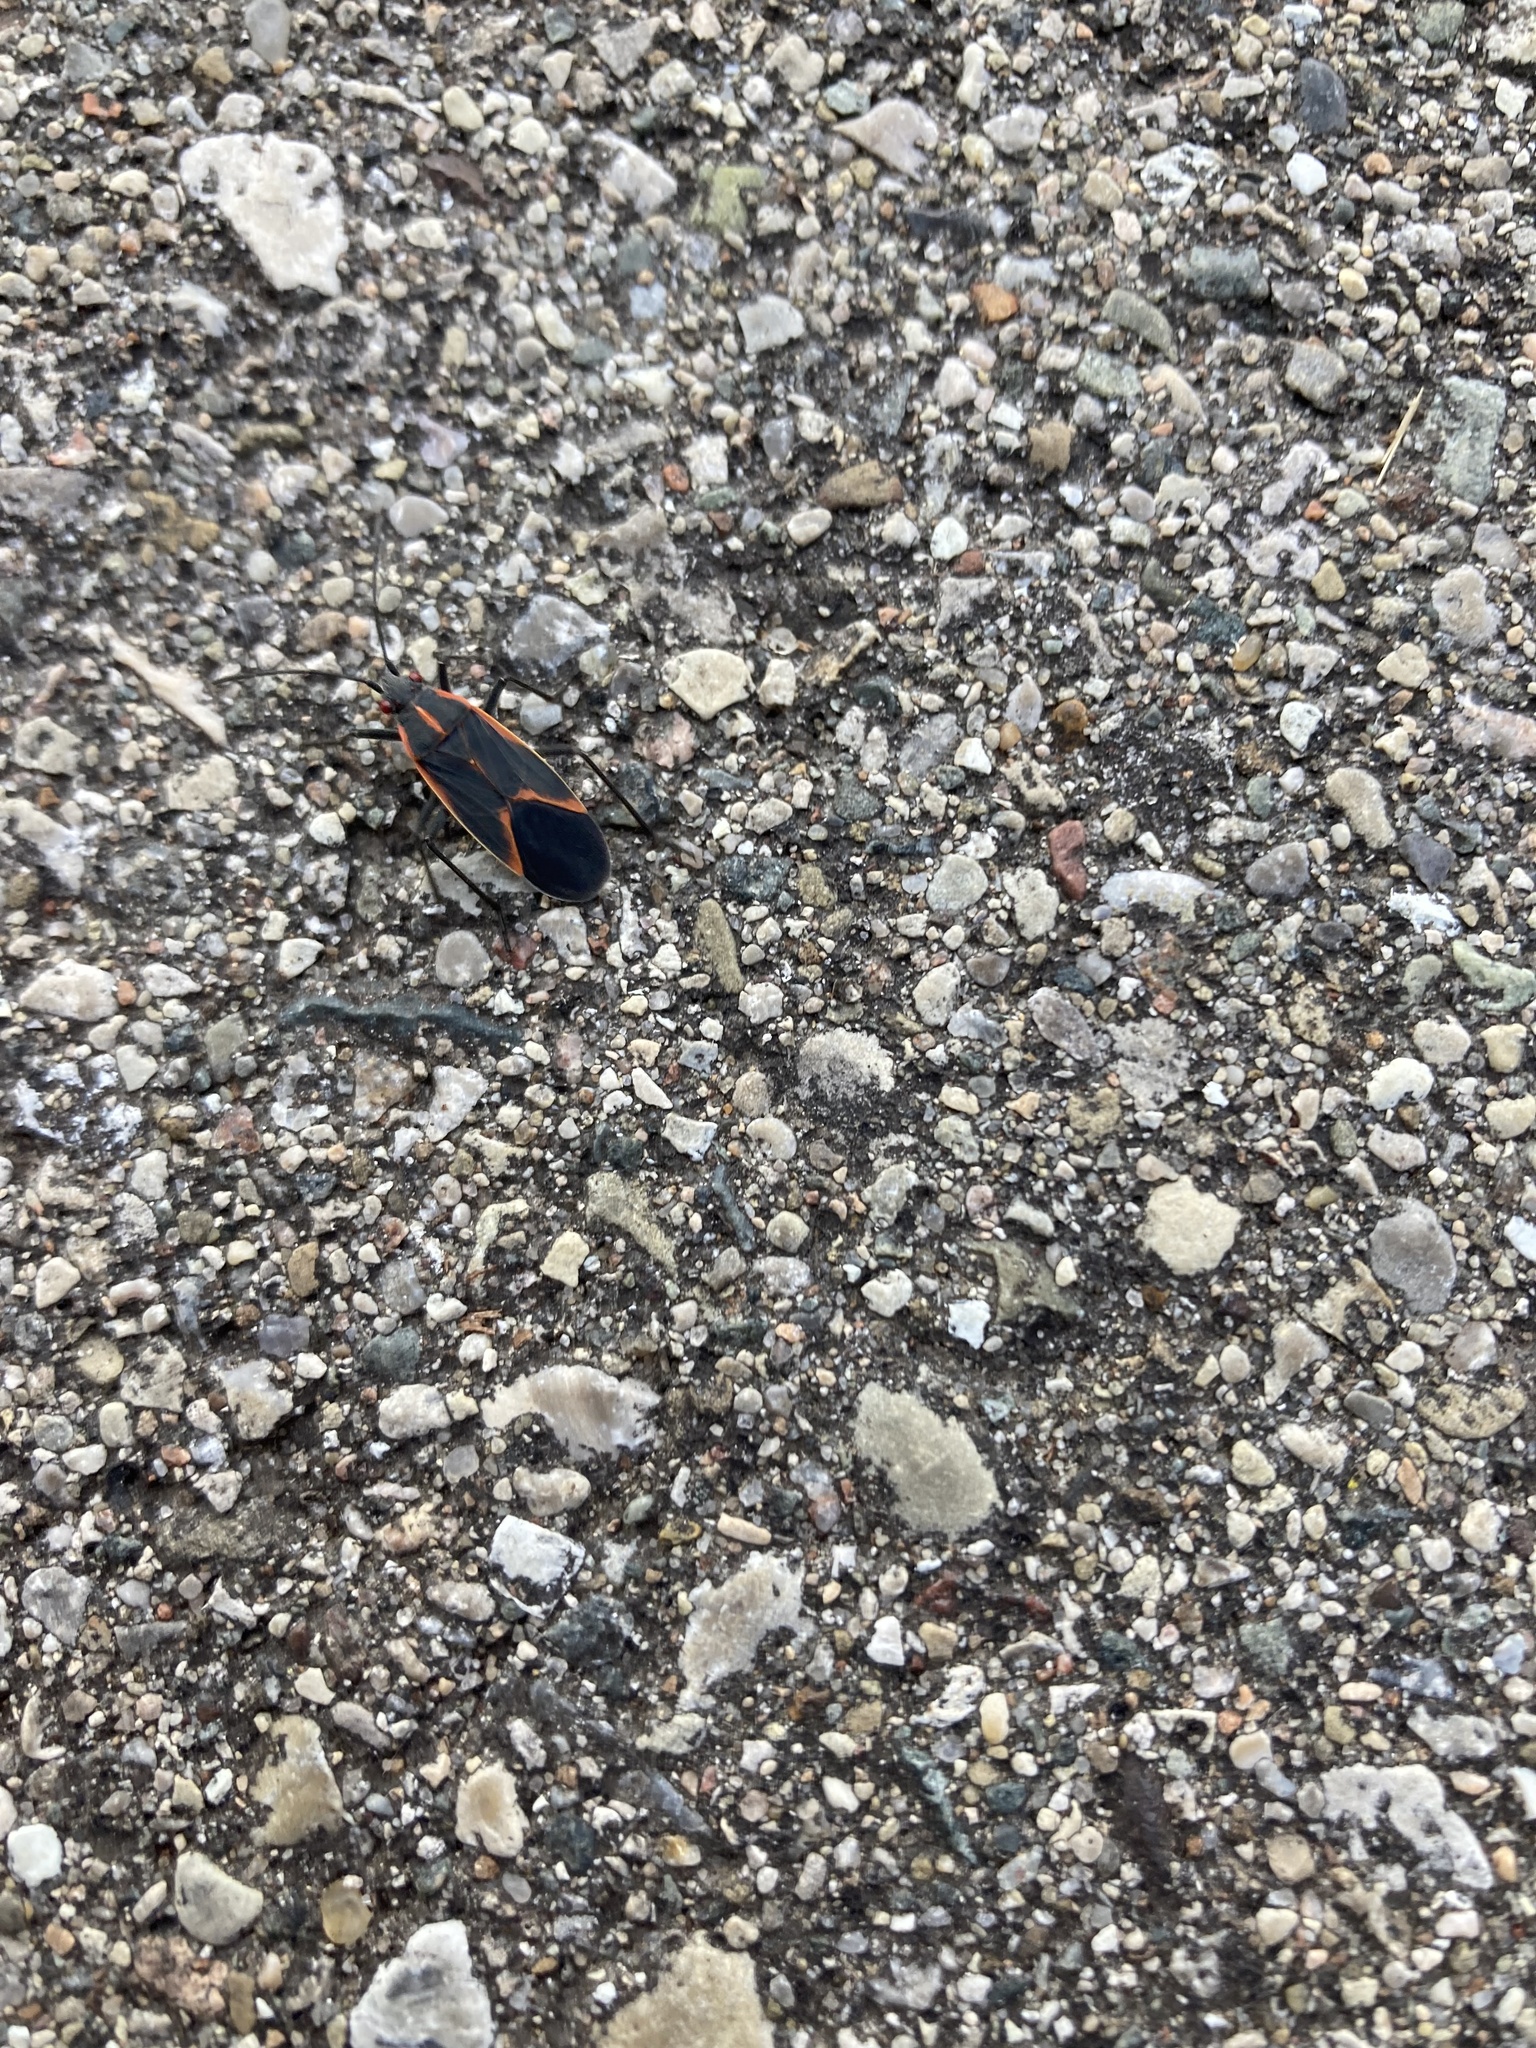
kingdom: Animalia
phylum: Arthropoda
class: Insecta
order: Hemiptera
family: Rhopalidae
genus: Boisea
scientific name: Boisea trivittata
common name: Boxelder bug
